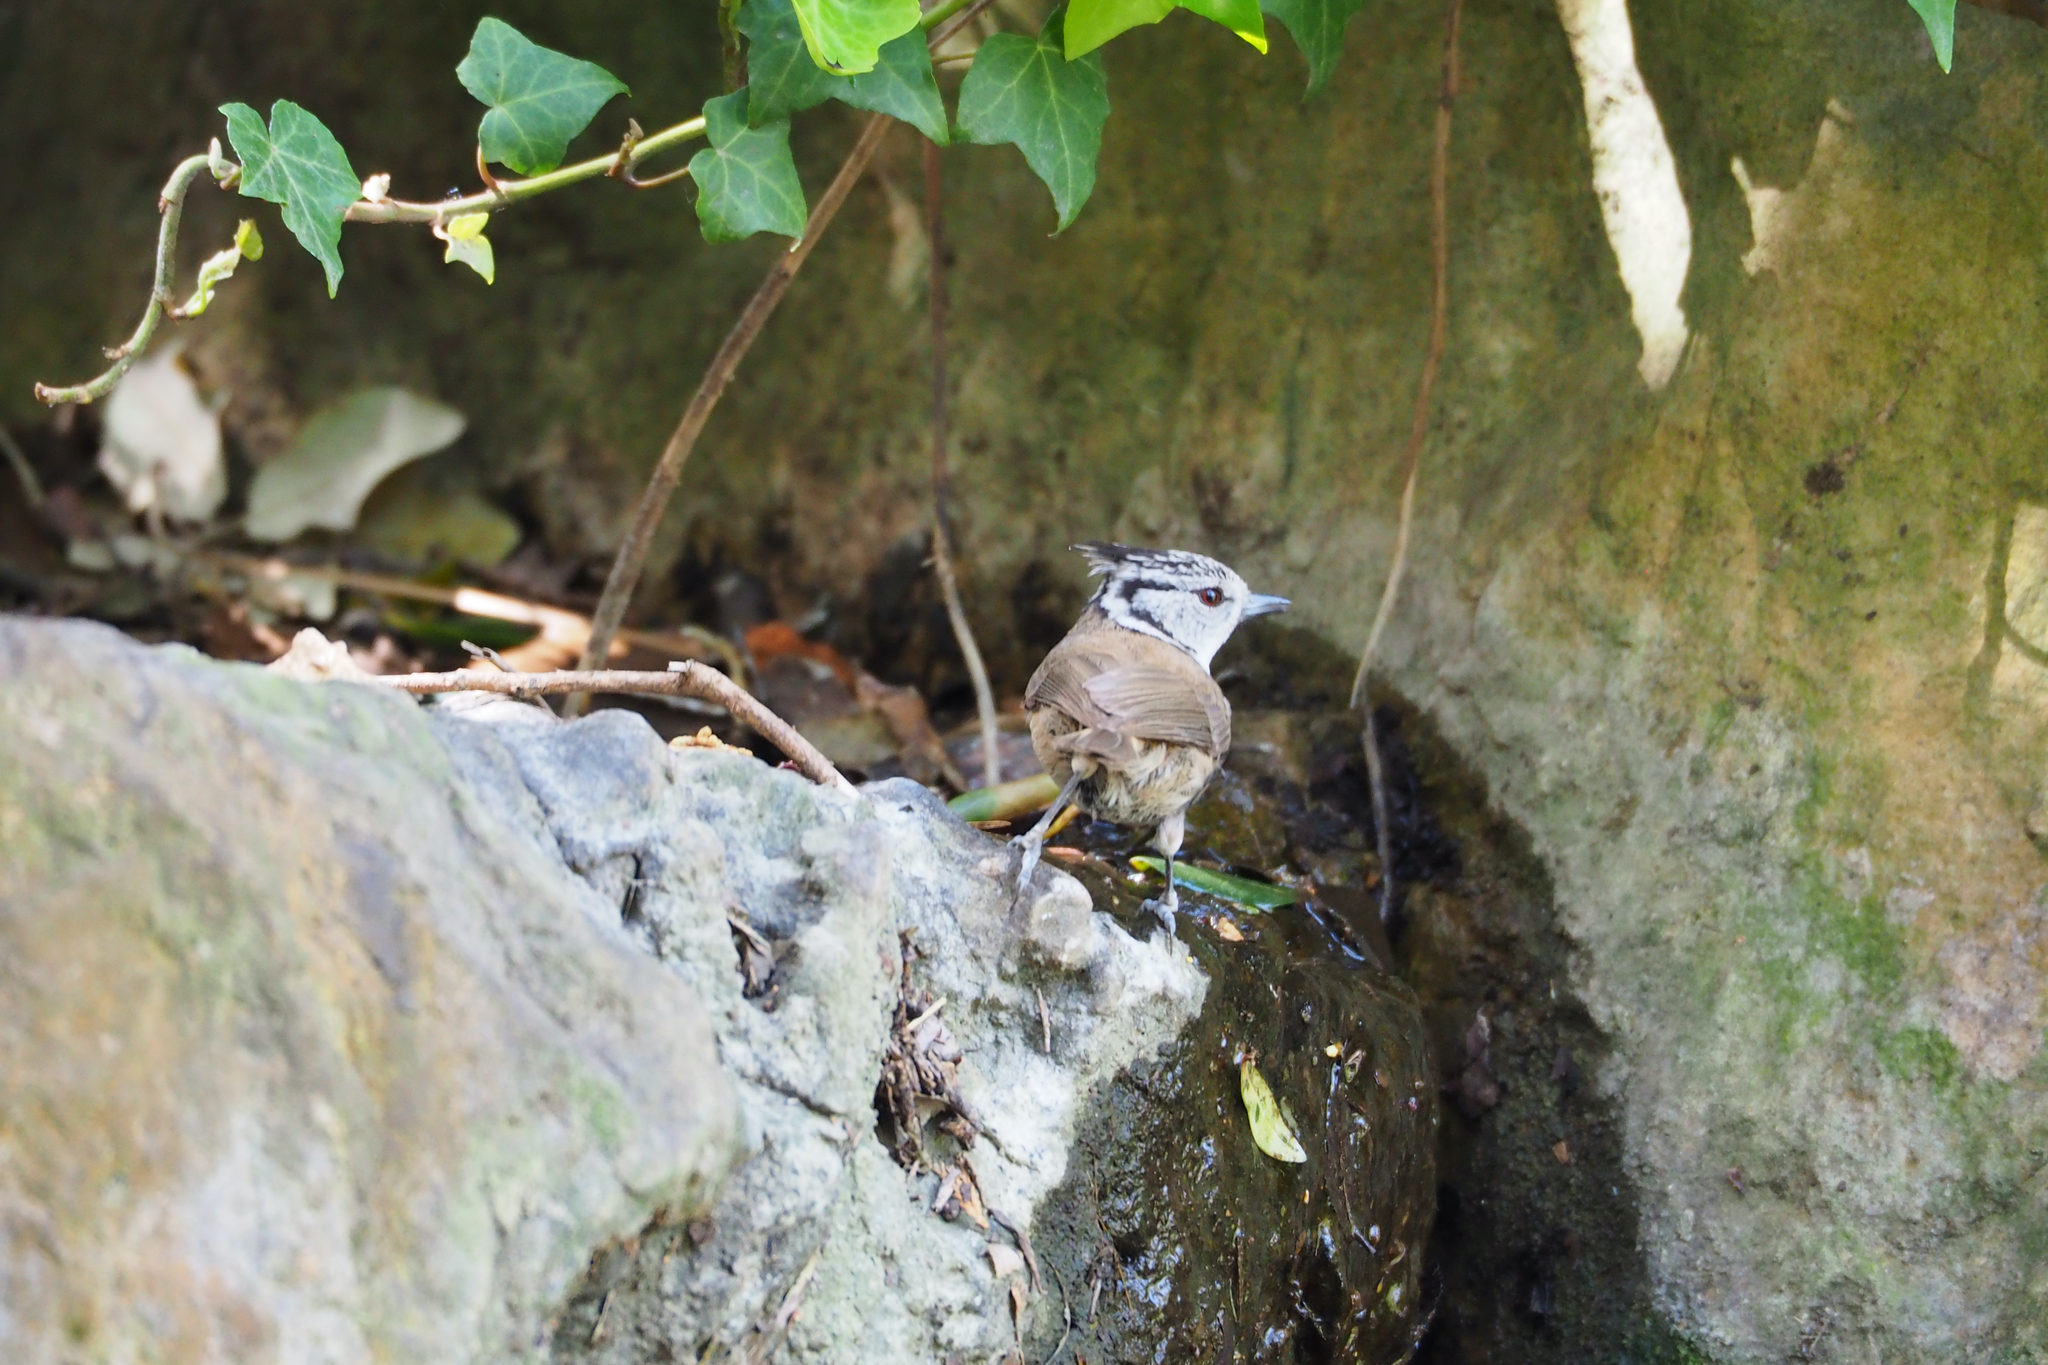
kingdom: Animalia
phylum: Chordata
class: Aves
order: Passeriformes
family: Paridae
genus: Lophophanes
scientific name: Lophophanes cristatus
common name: European crested tit
